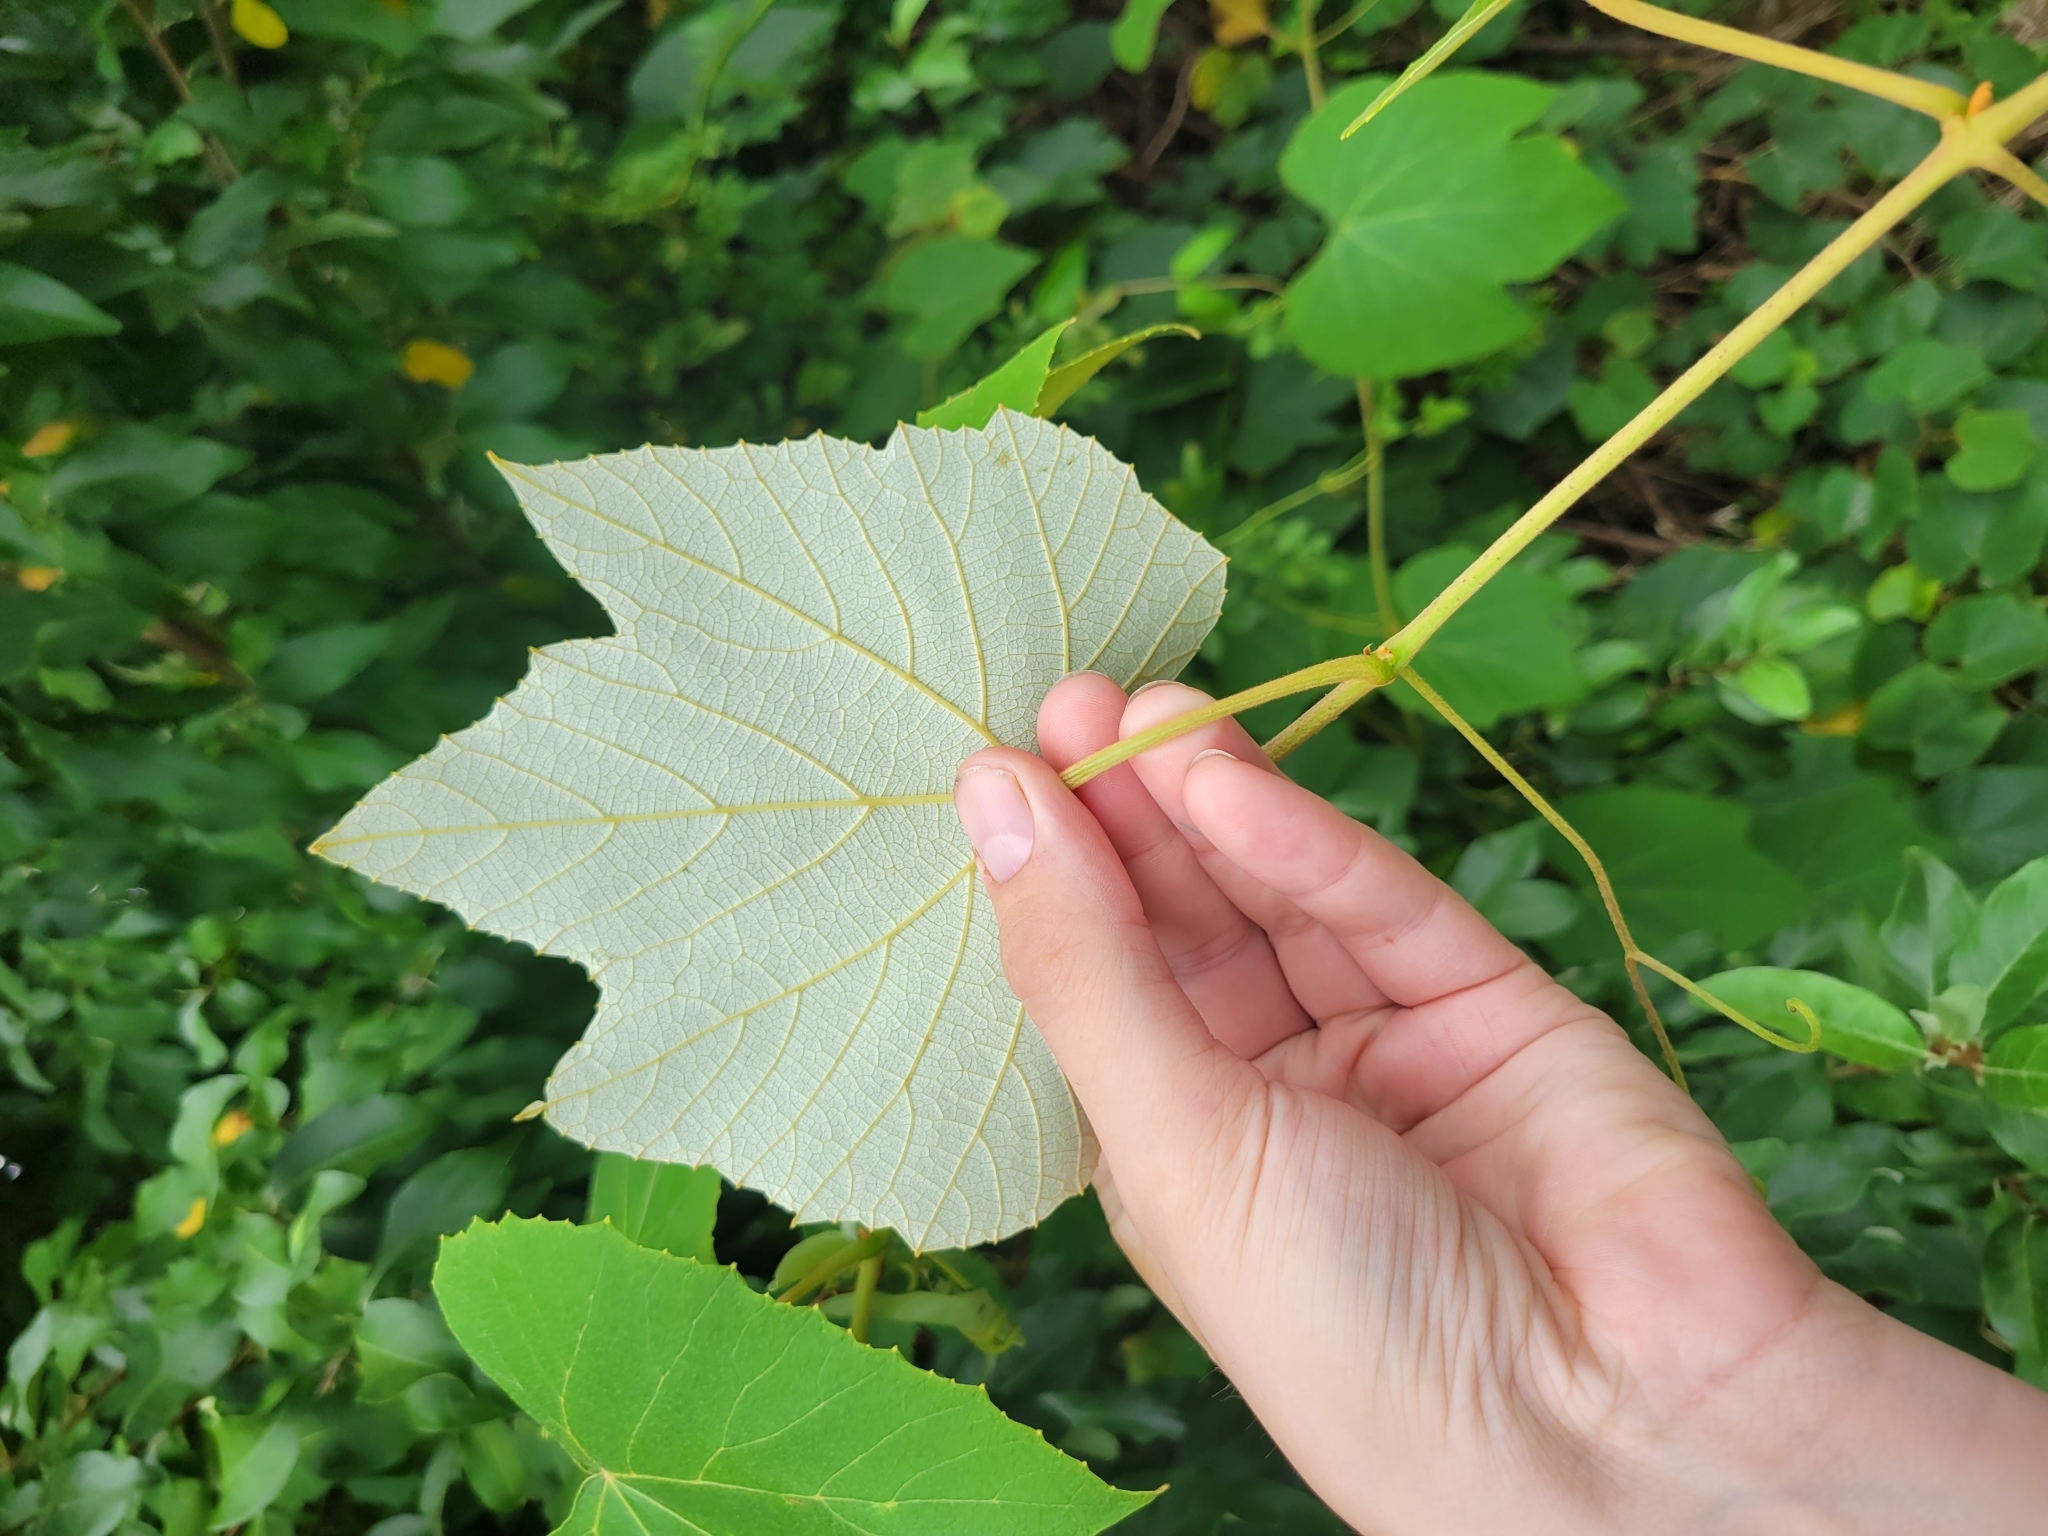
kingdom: Plantae
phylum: Tracheophyta
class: Magnoliopsida
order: Vitales
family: Vitaceae
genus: Vitis
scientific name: Vitis labrusca
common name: Concord grape
